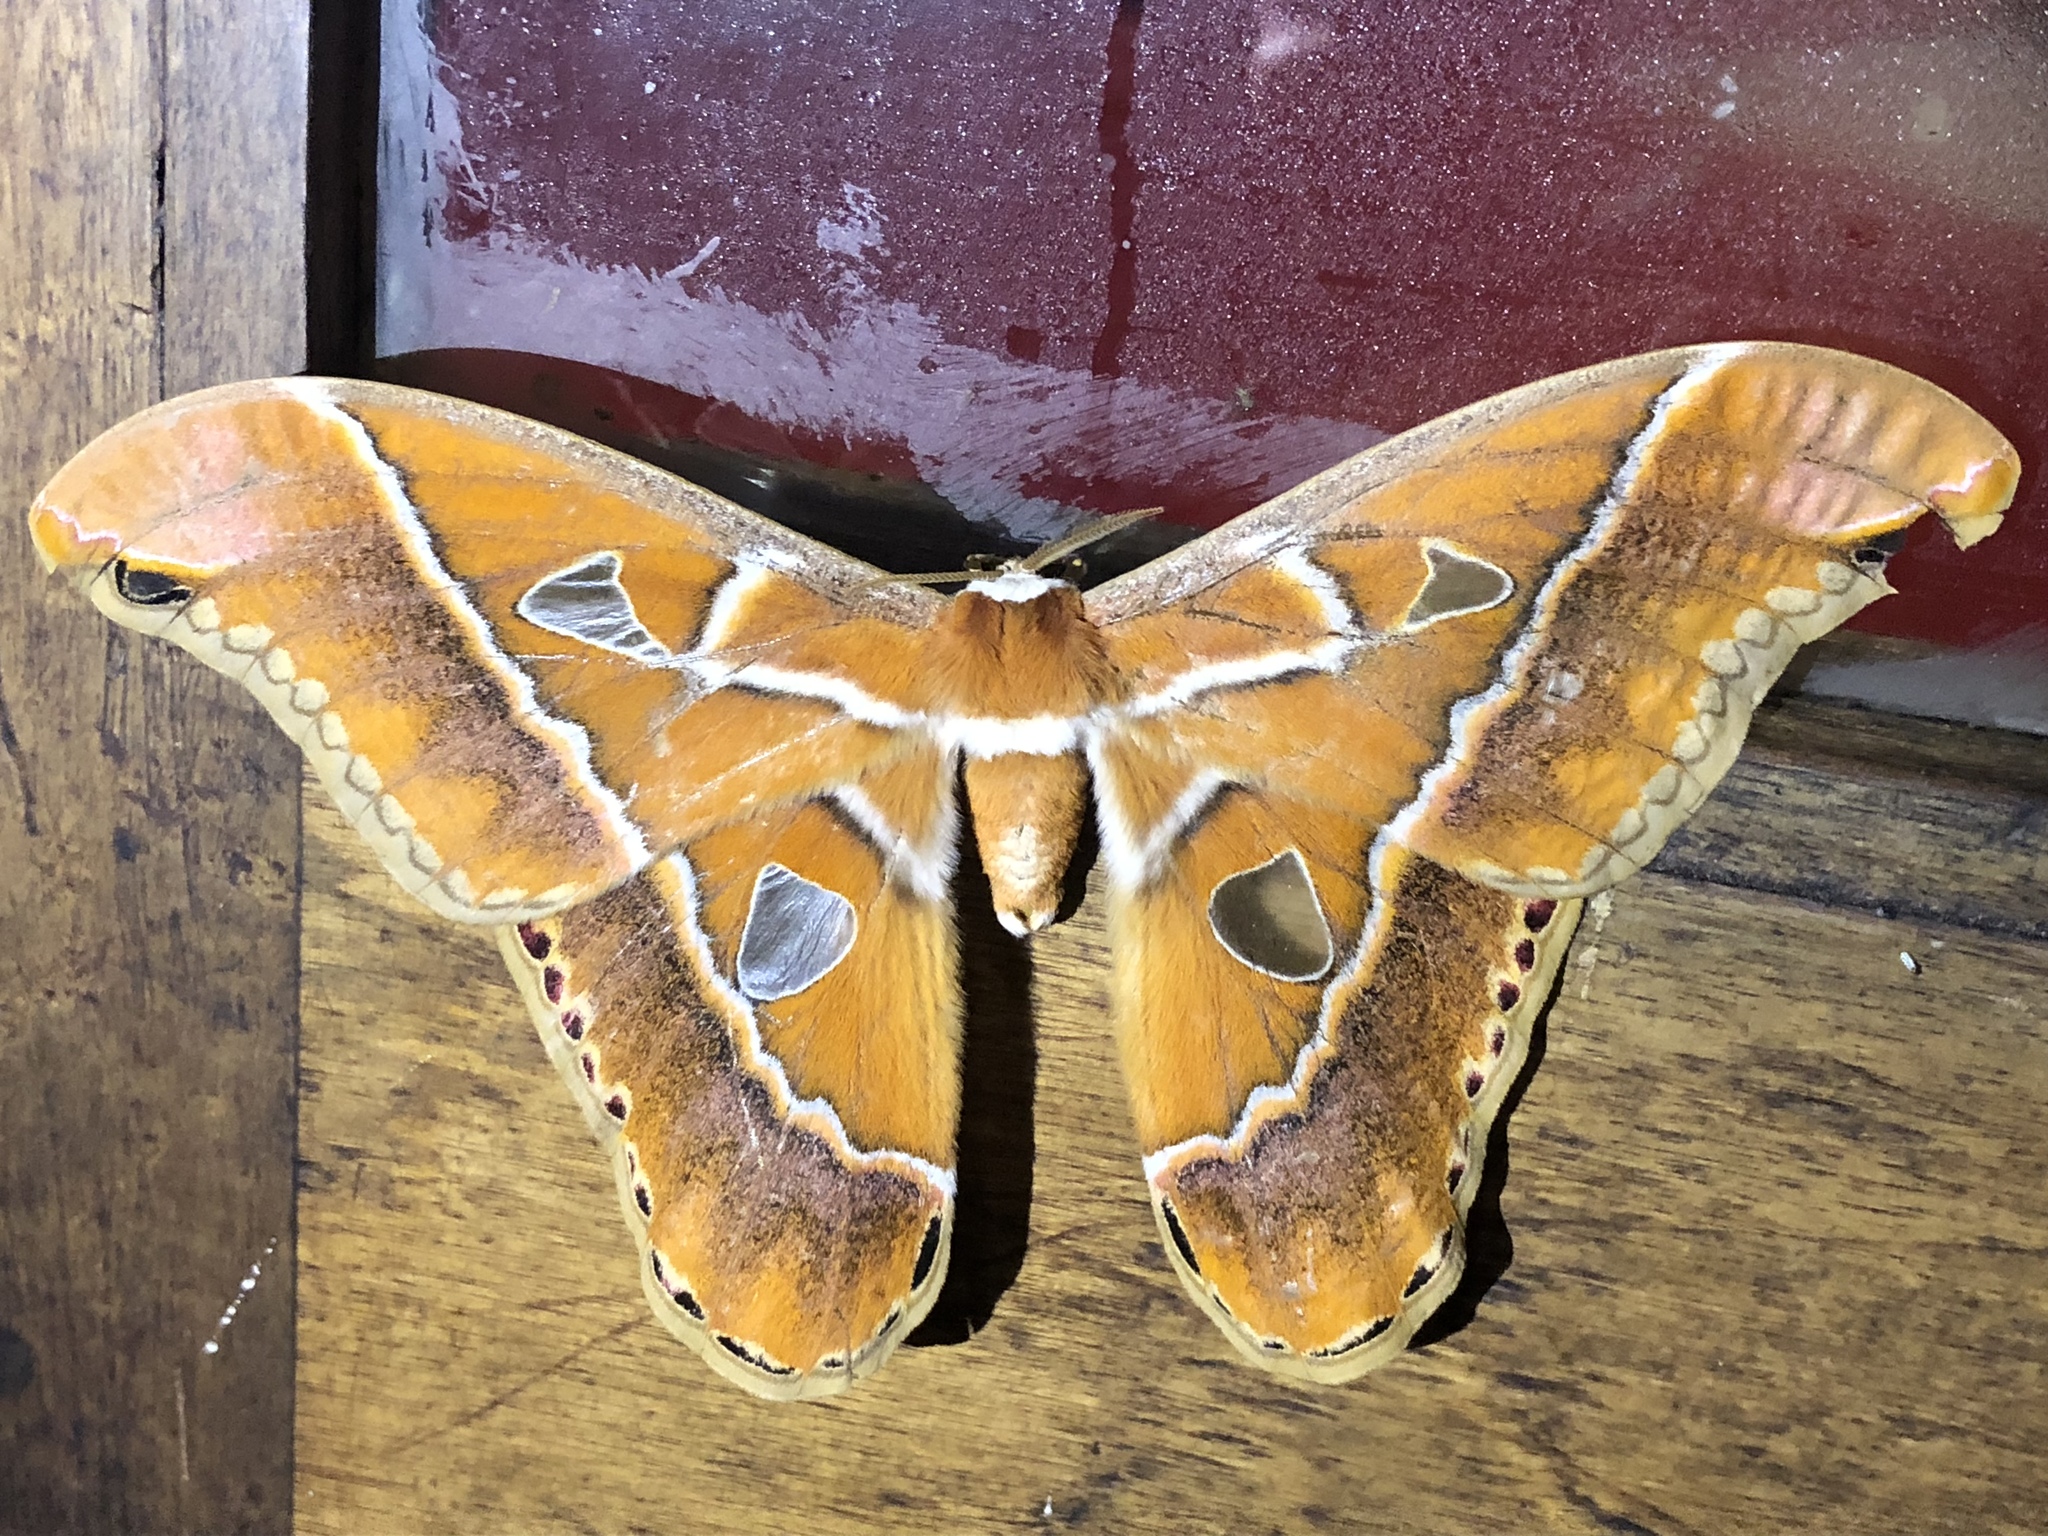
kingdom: Animalia
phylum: Arthropoda
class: Insecta
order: Lepidoptera
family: Saturniidae
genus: Rothschildia
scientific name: Rothschildia hesperus
